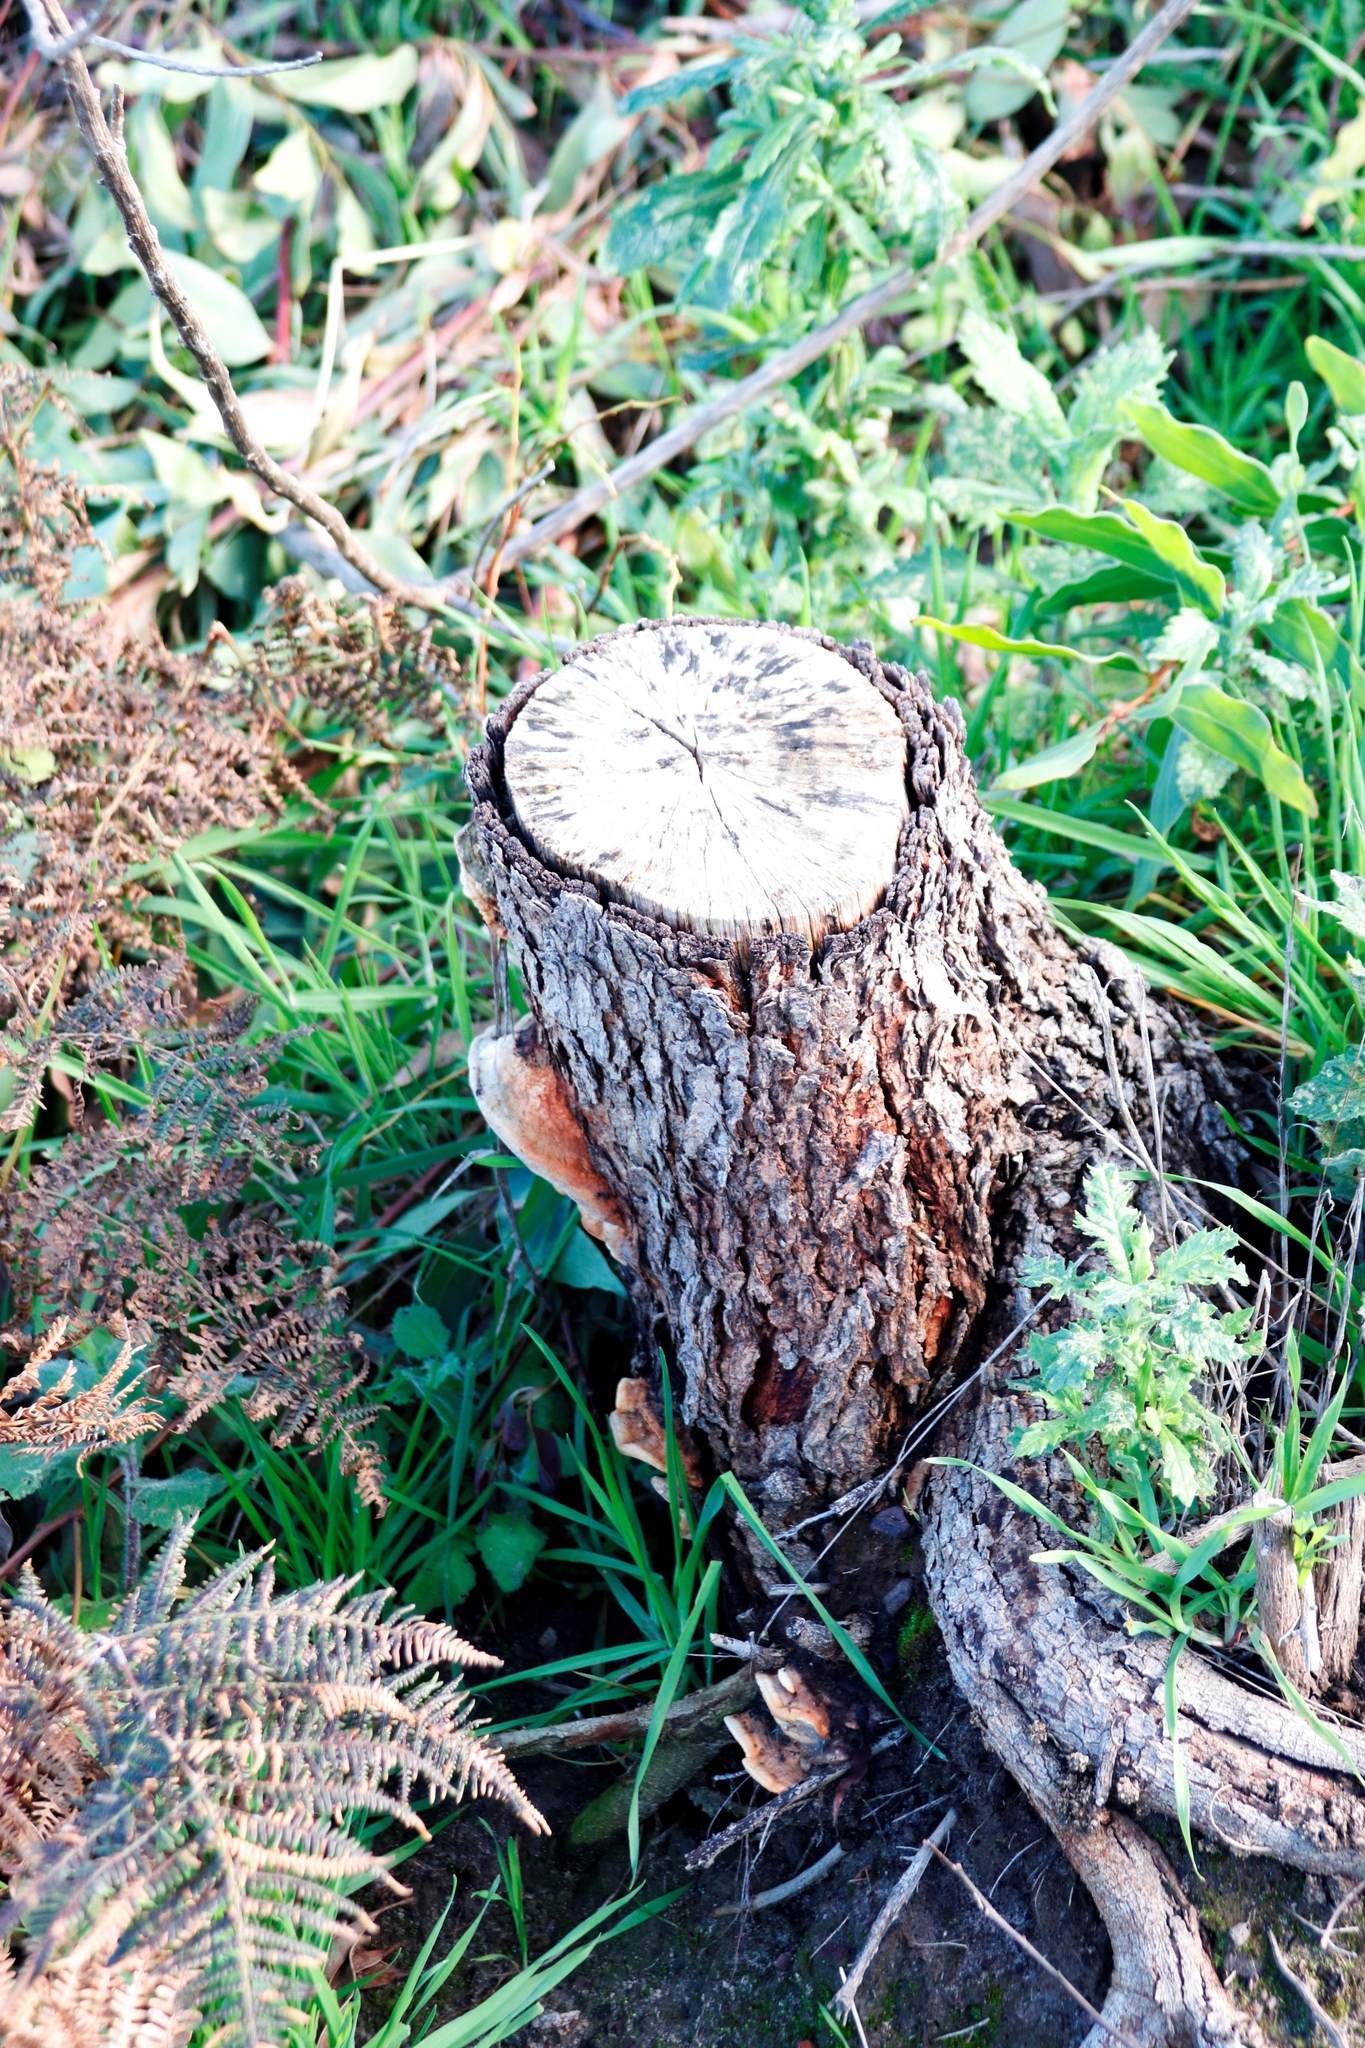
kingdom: Plantae
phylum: Tracheophyta
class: Magnoliopsida
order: Fabales
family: Fabaceae
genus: Acacia
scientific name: Acacia falciformis
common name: Tanning wattle
